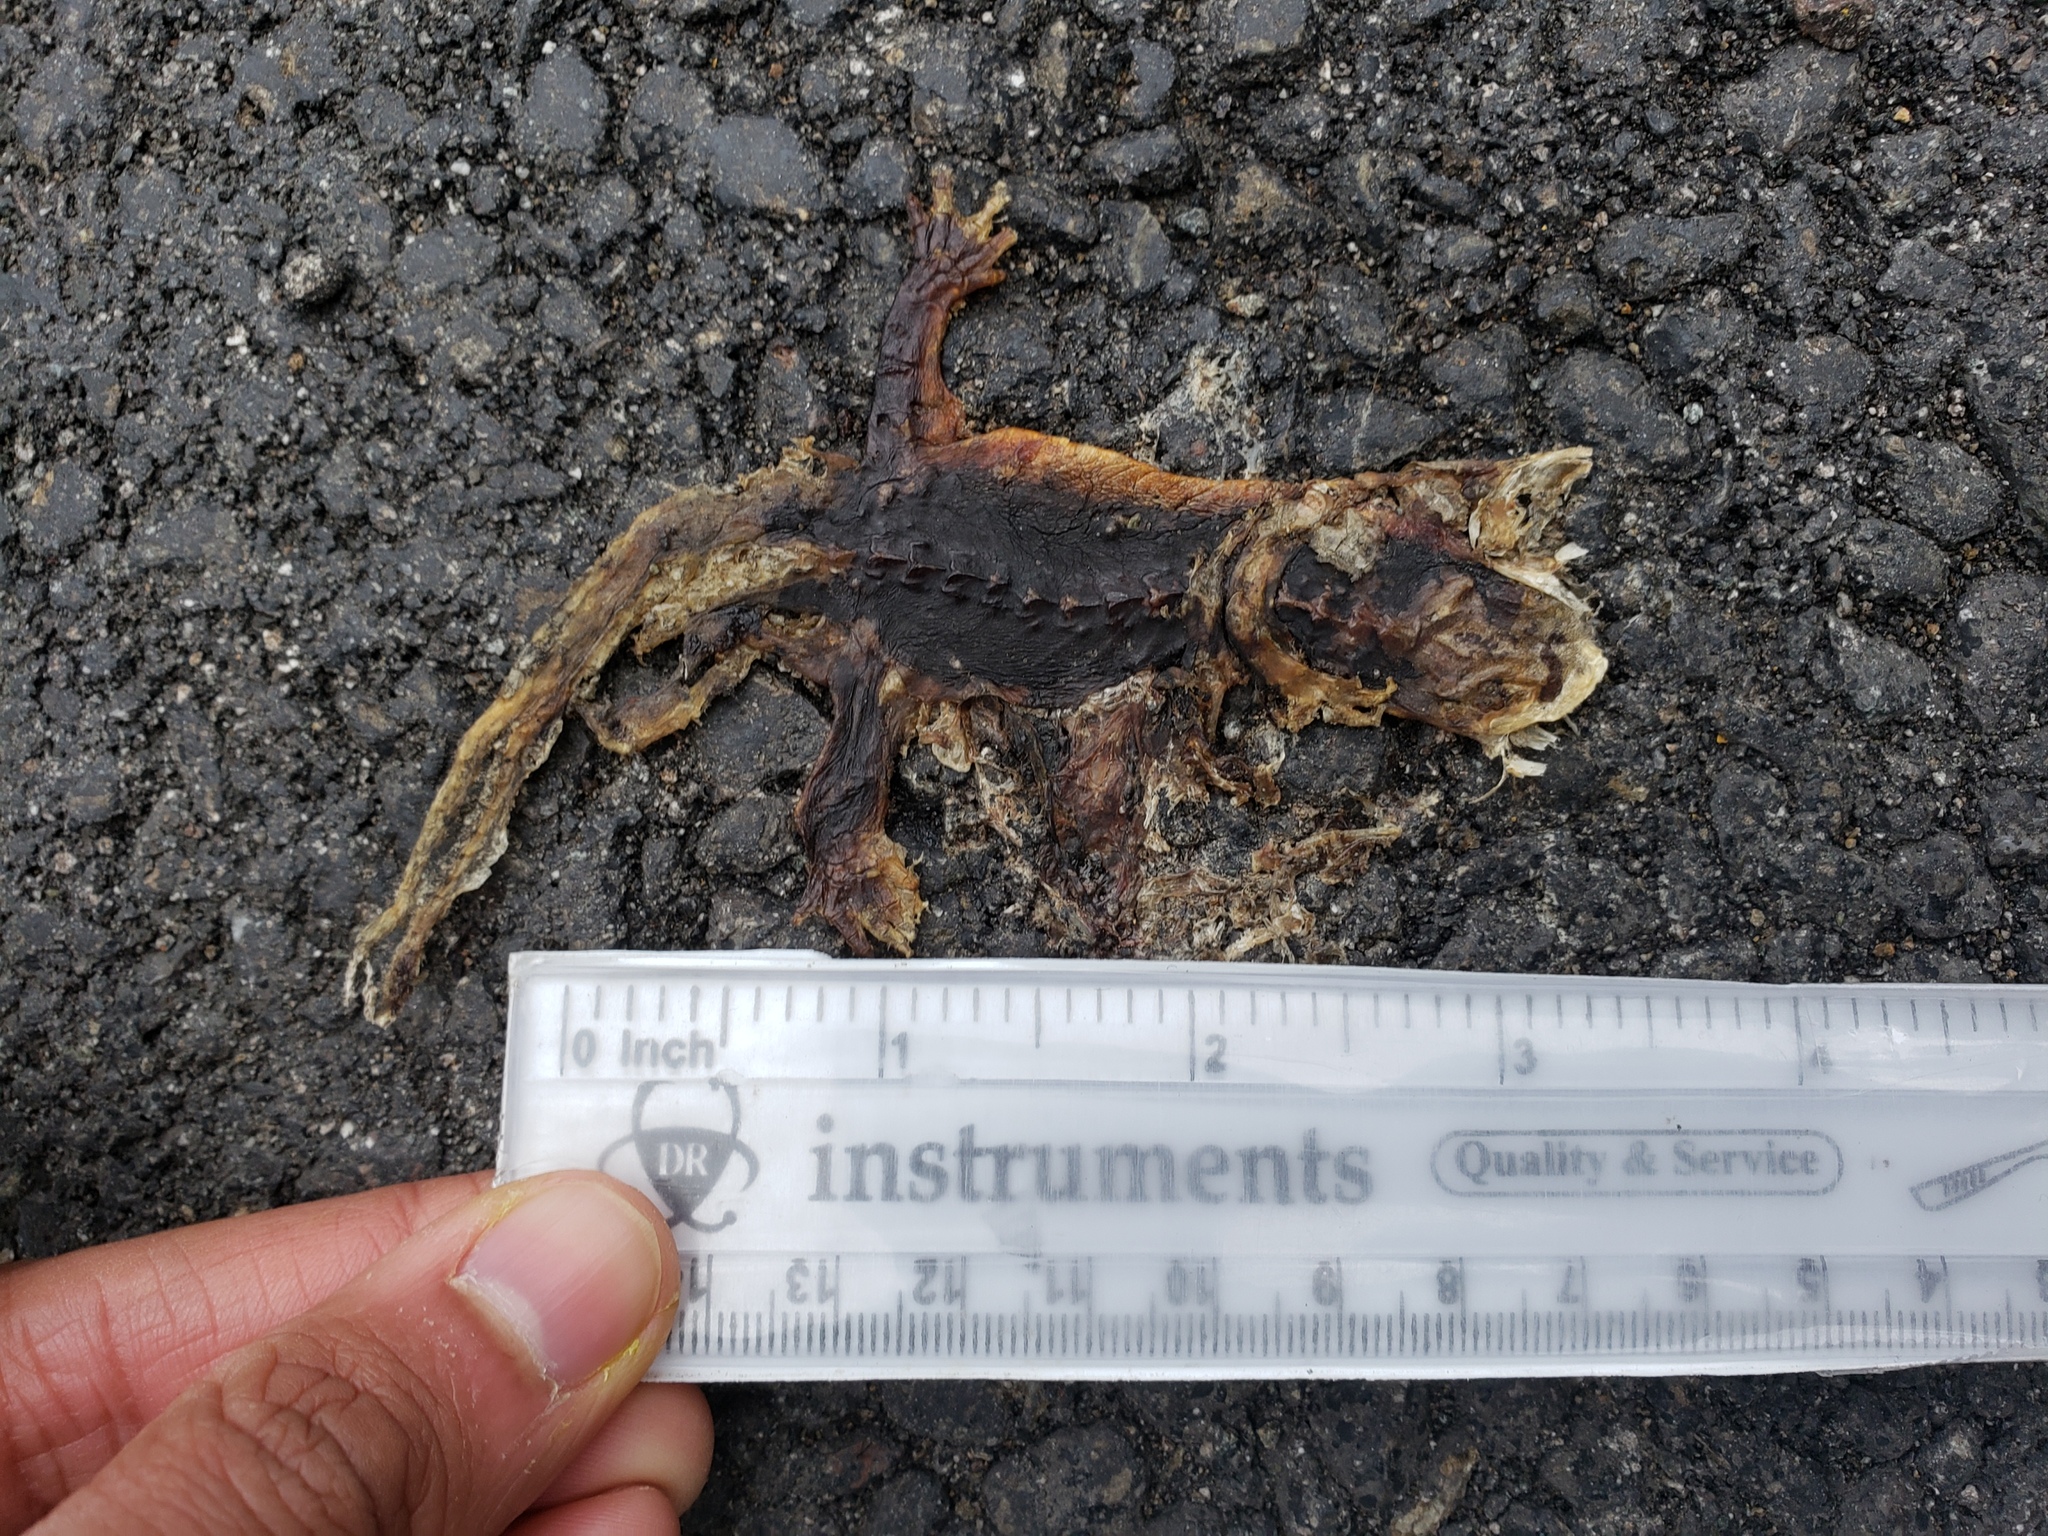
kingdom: Animalia
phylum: Chordata
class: Amphibia
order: Caudata
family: Salamandridae
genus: Taricha
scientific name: Taricha
